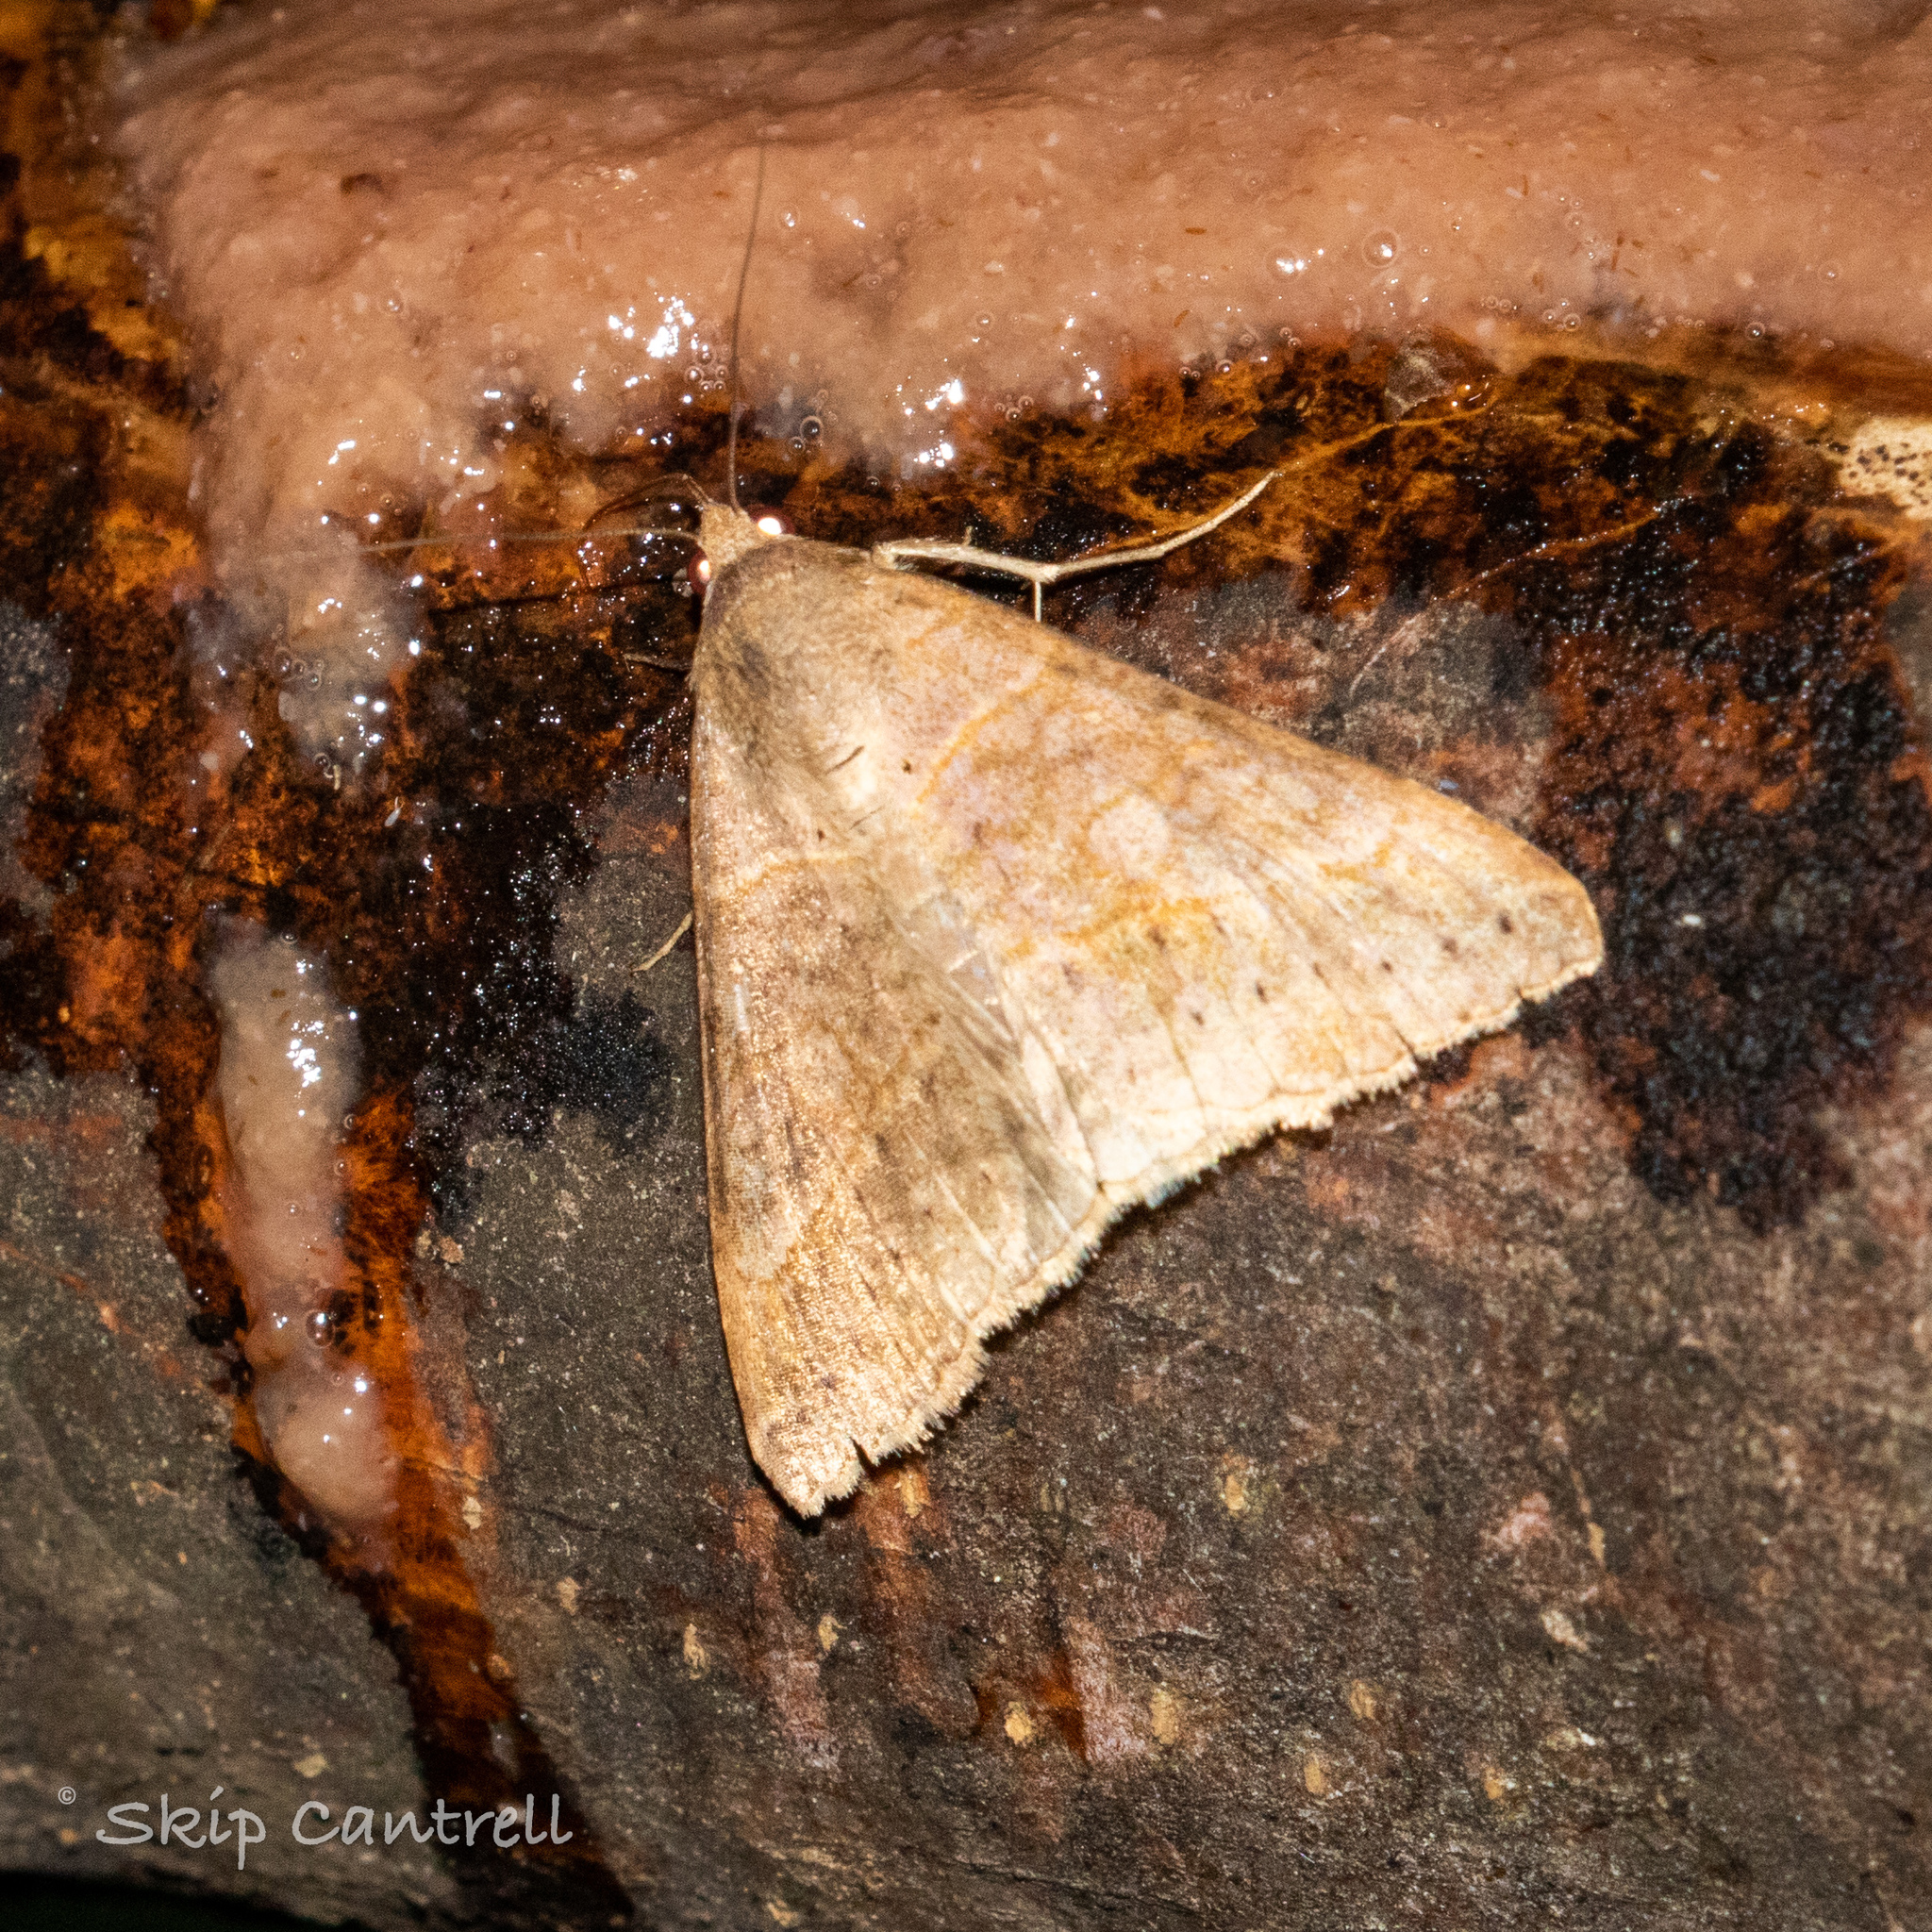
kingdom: Animalia
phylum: Arthropoda
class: Insecta
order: Lepidoptera
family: Erebidae
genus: Mocis
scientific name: Mocis latipes
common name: Striped grass looper
